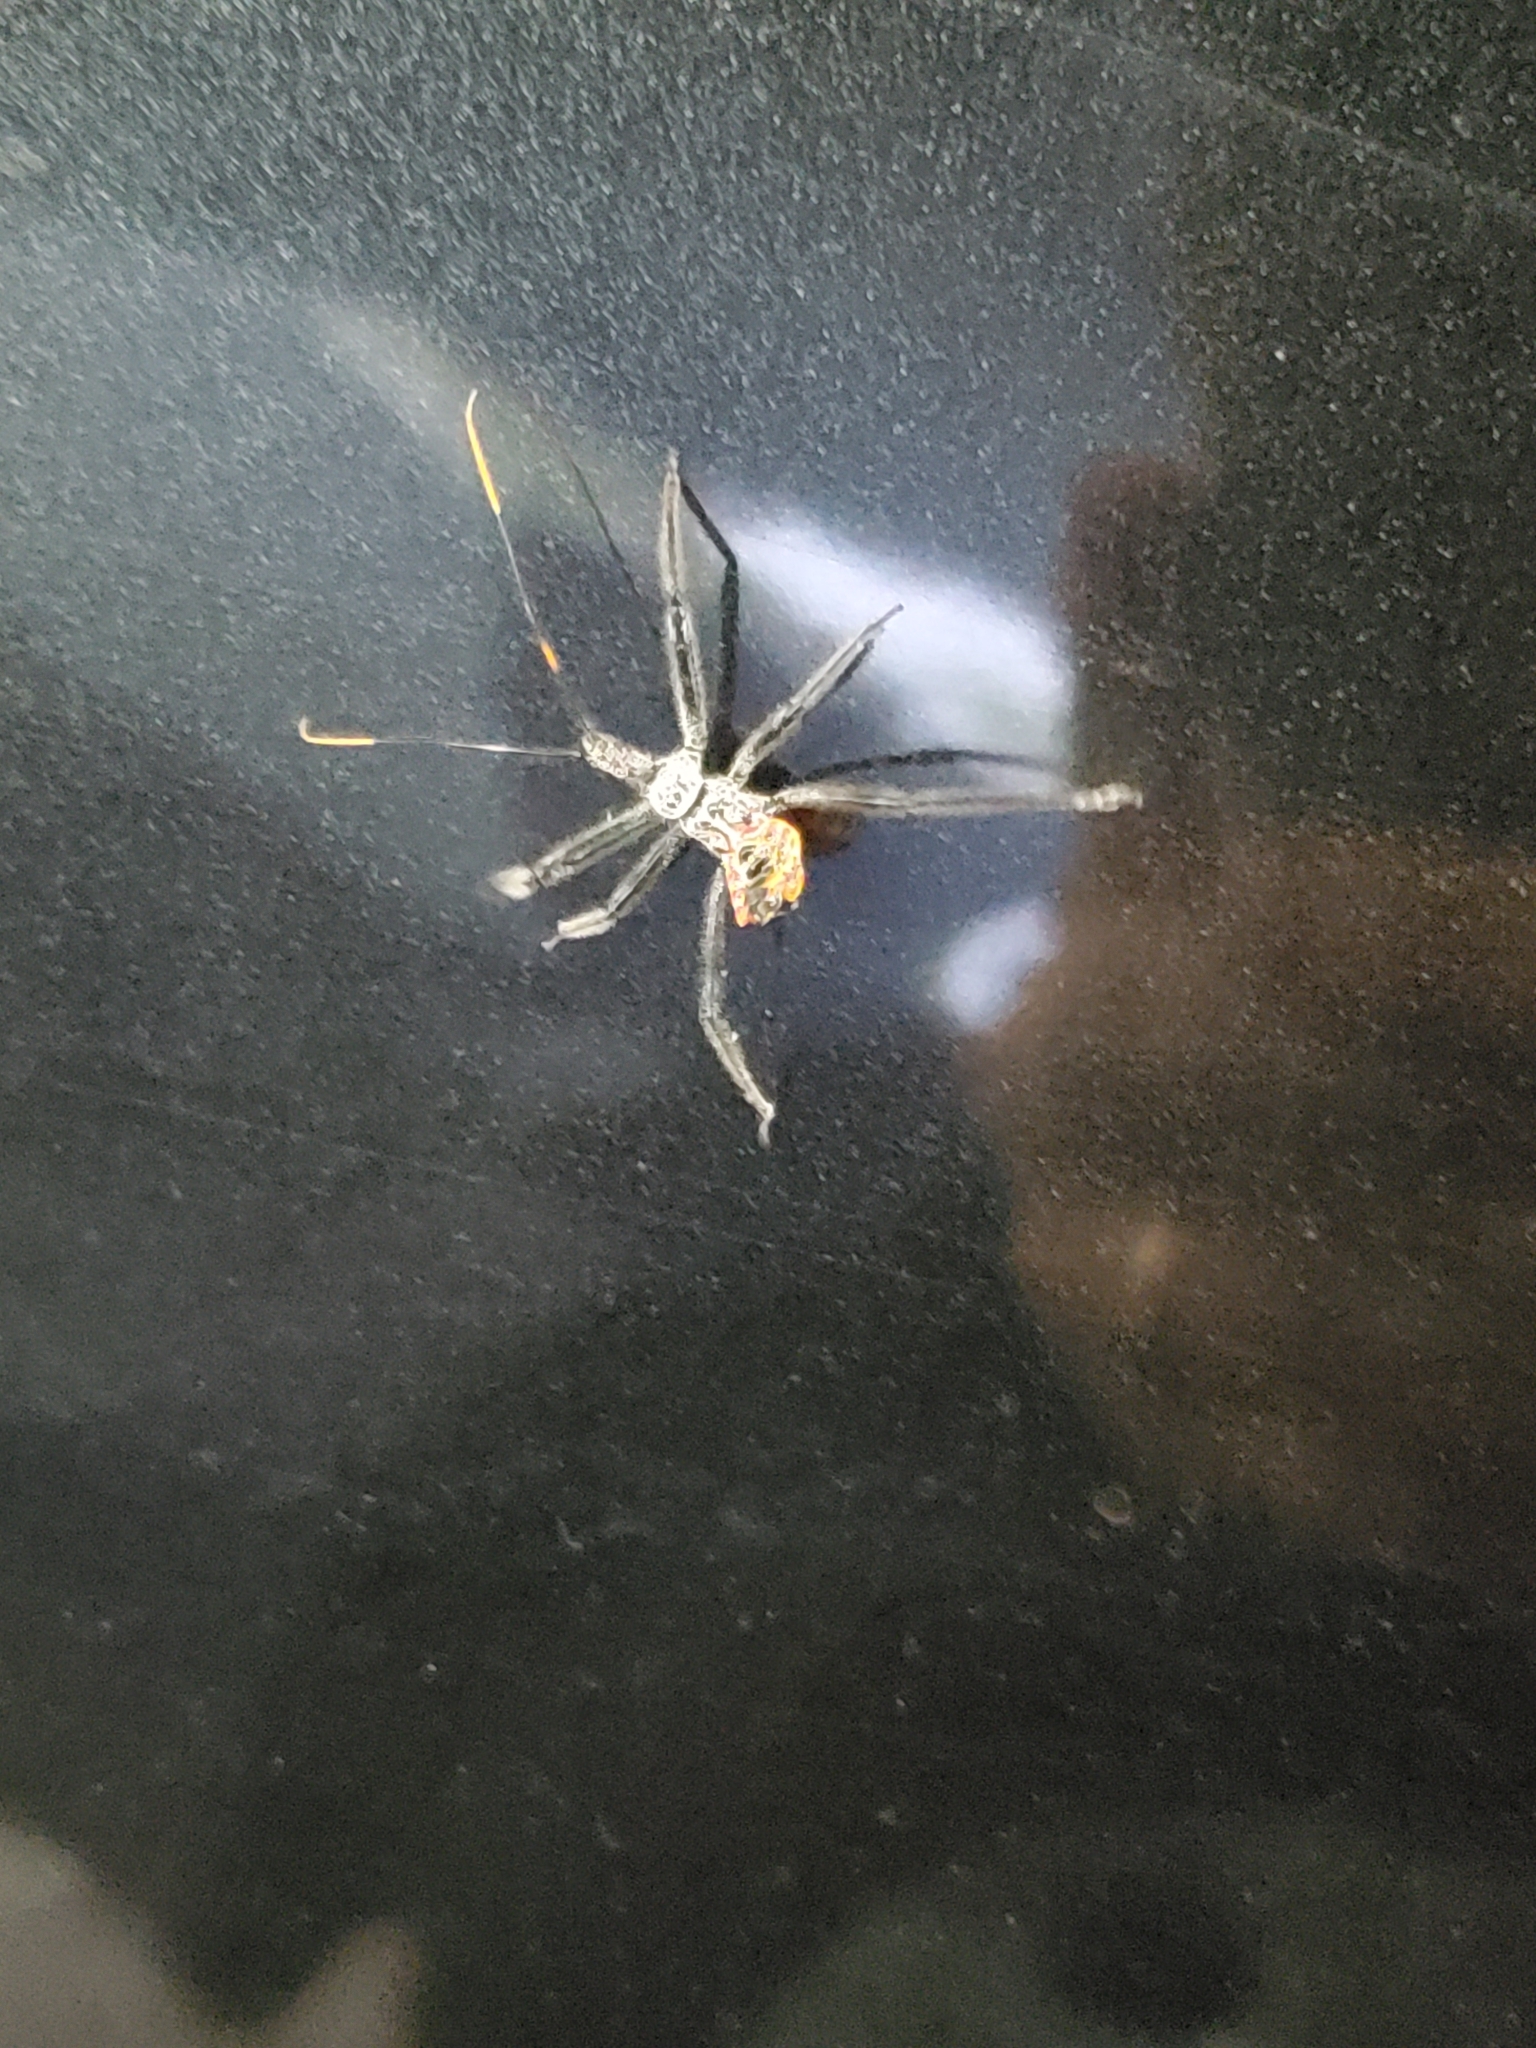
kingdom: Animalia
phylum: Arthropoda
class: Insecta
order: Hemiptera
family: Reduviidae
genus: Arilus
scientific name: Arilus cristatus
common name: North american wheel bug
